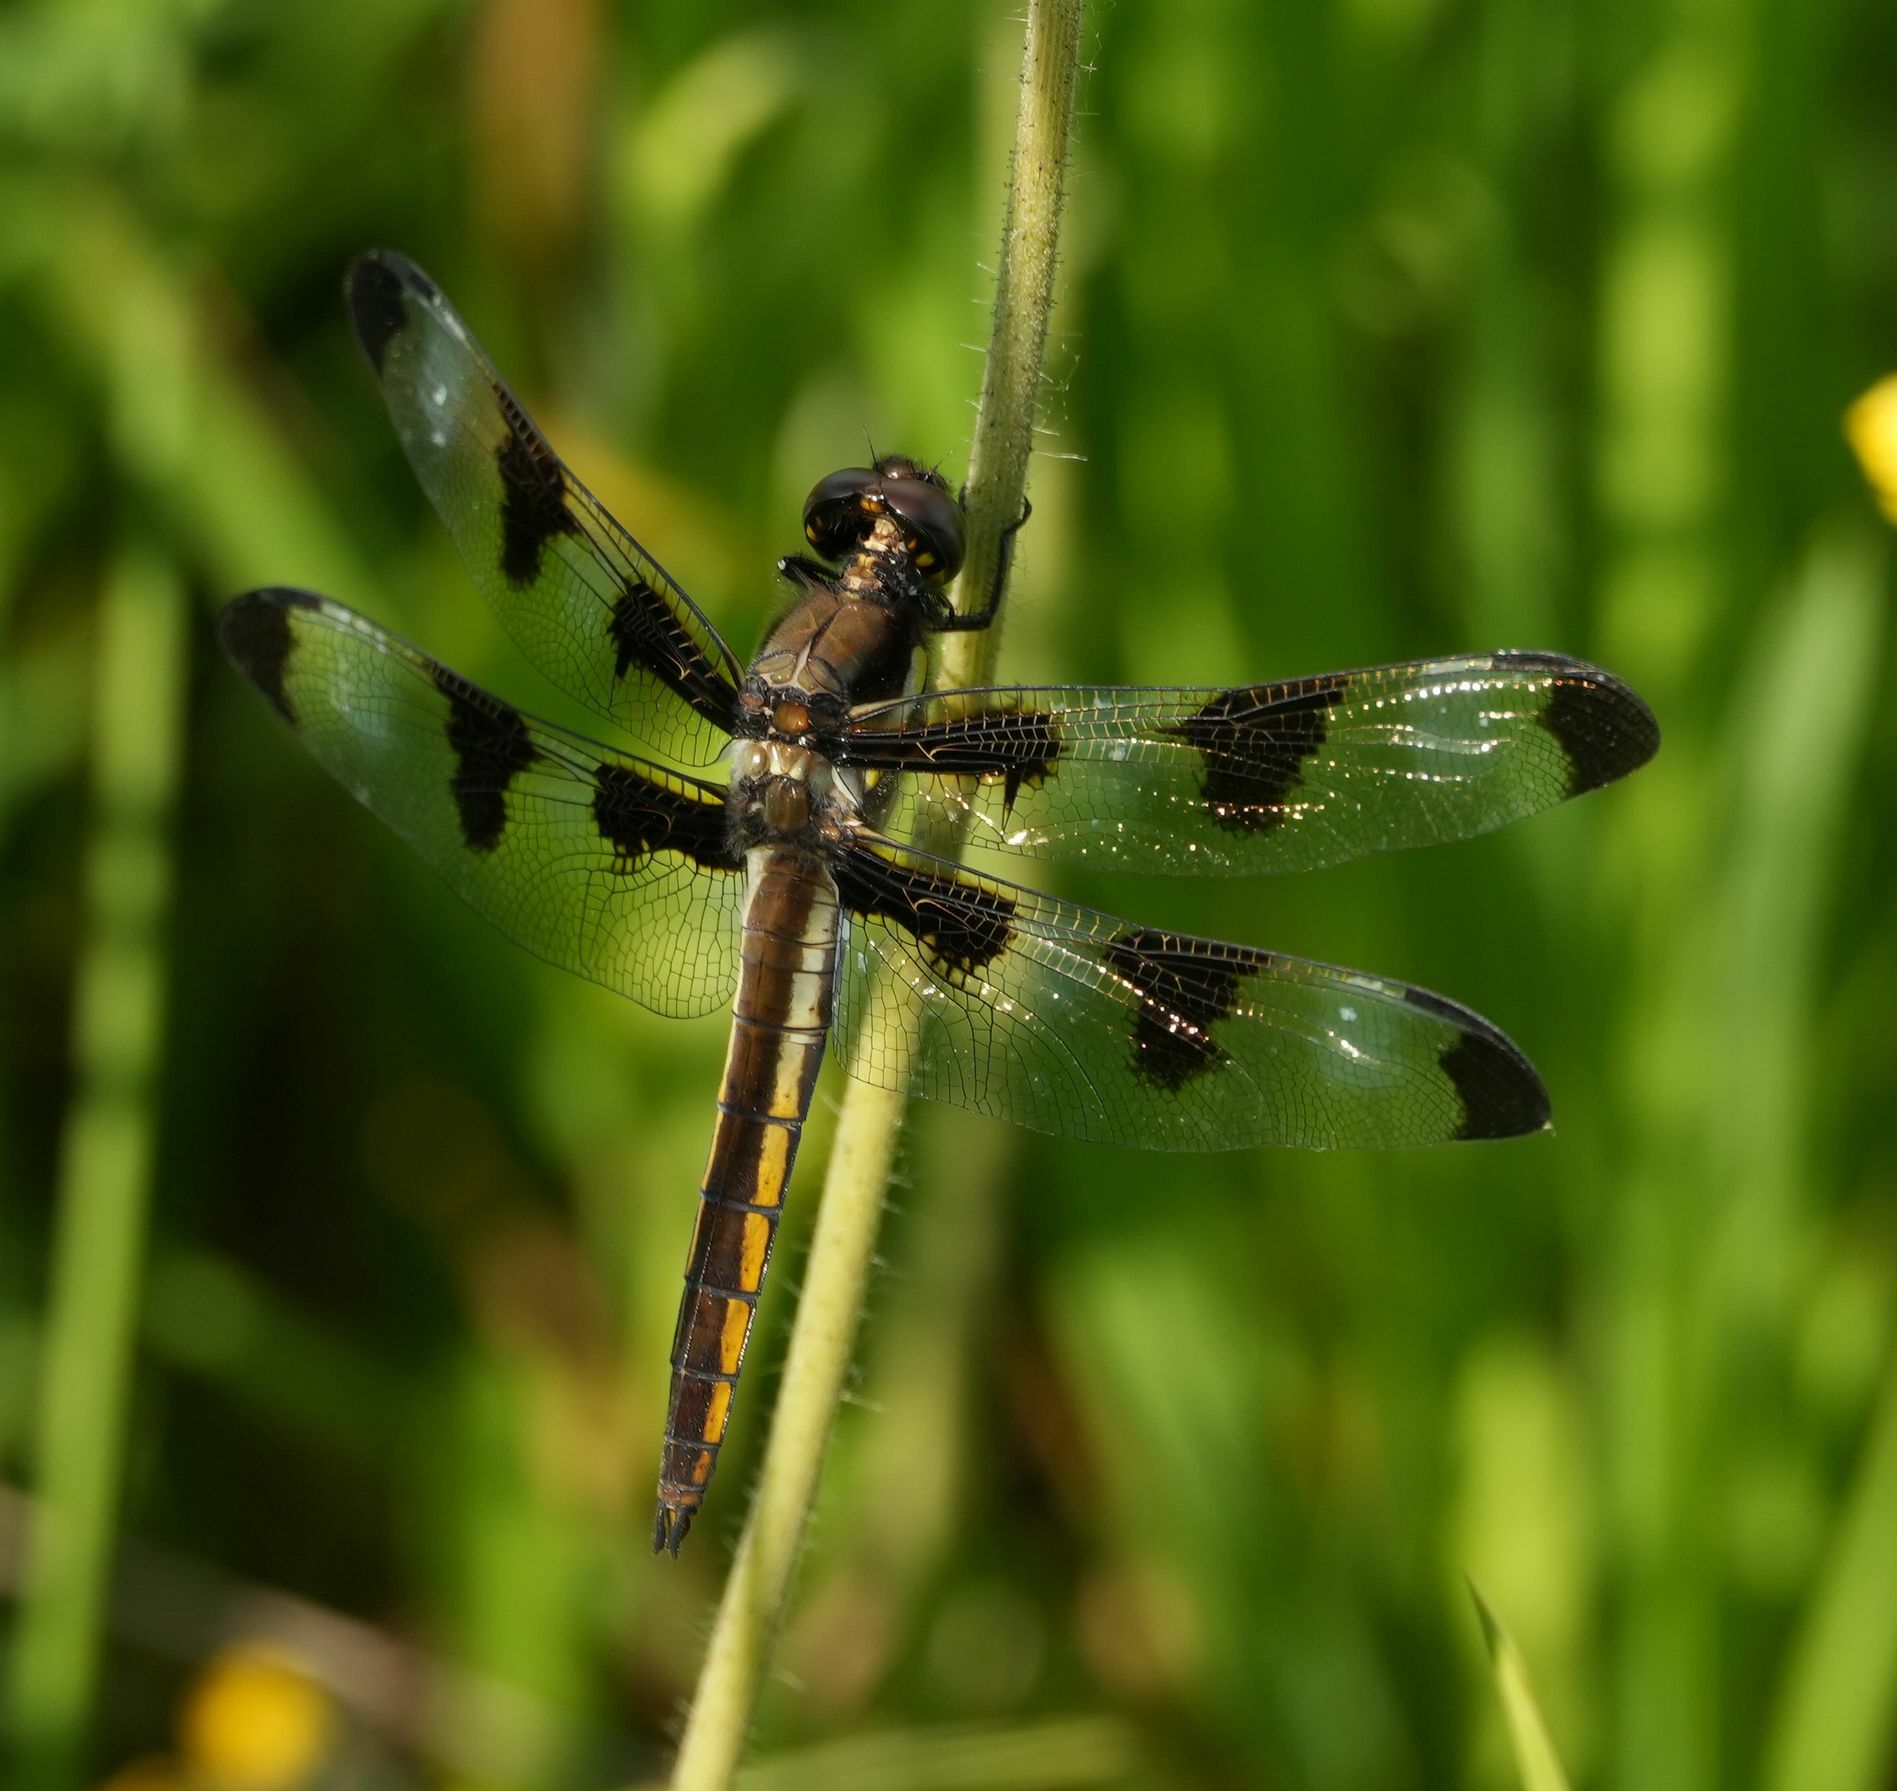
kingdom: Animalia
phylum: Arthropoda
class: Insecta
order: Odonata
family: Libellulidae
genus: Libellula
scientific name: Libellula pulchella
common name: Twelve-spotted skimmer
